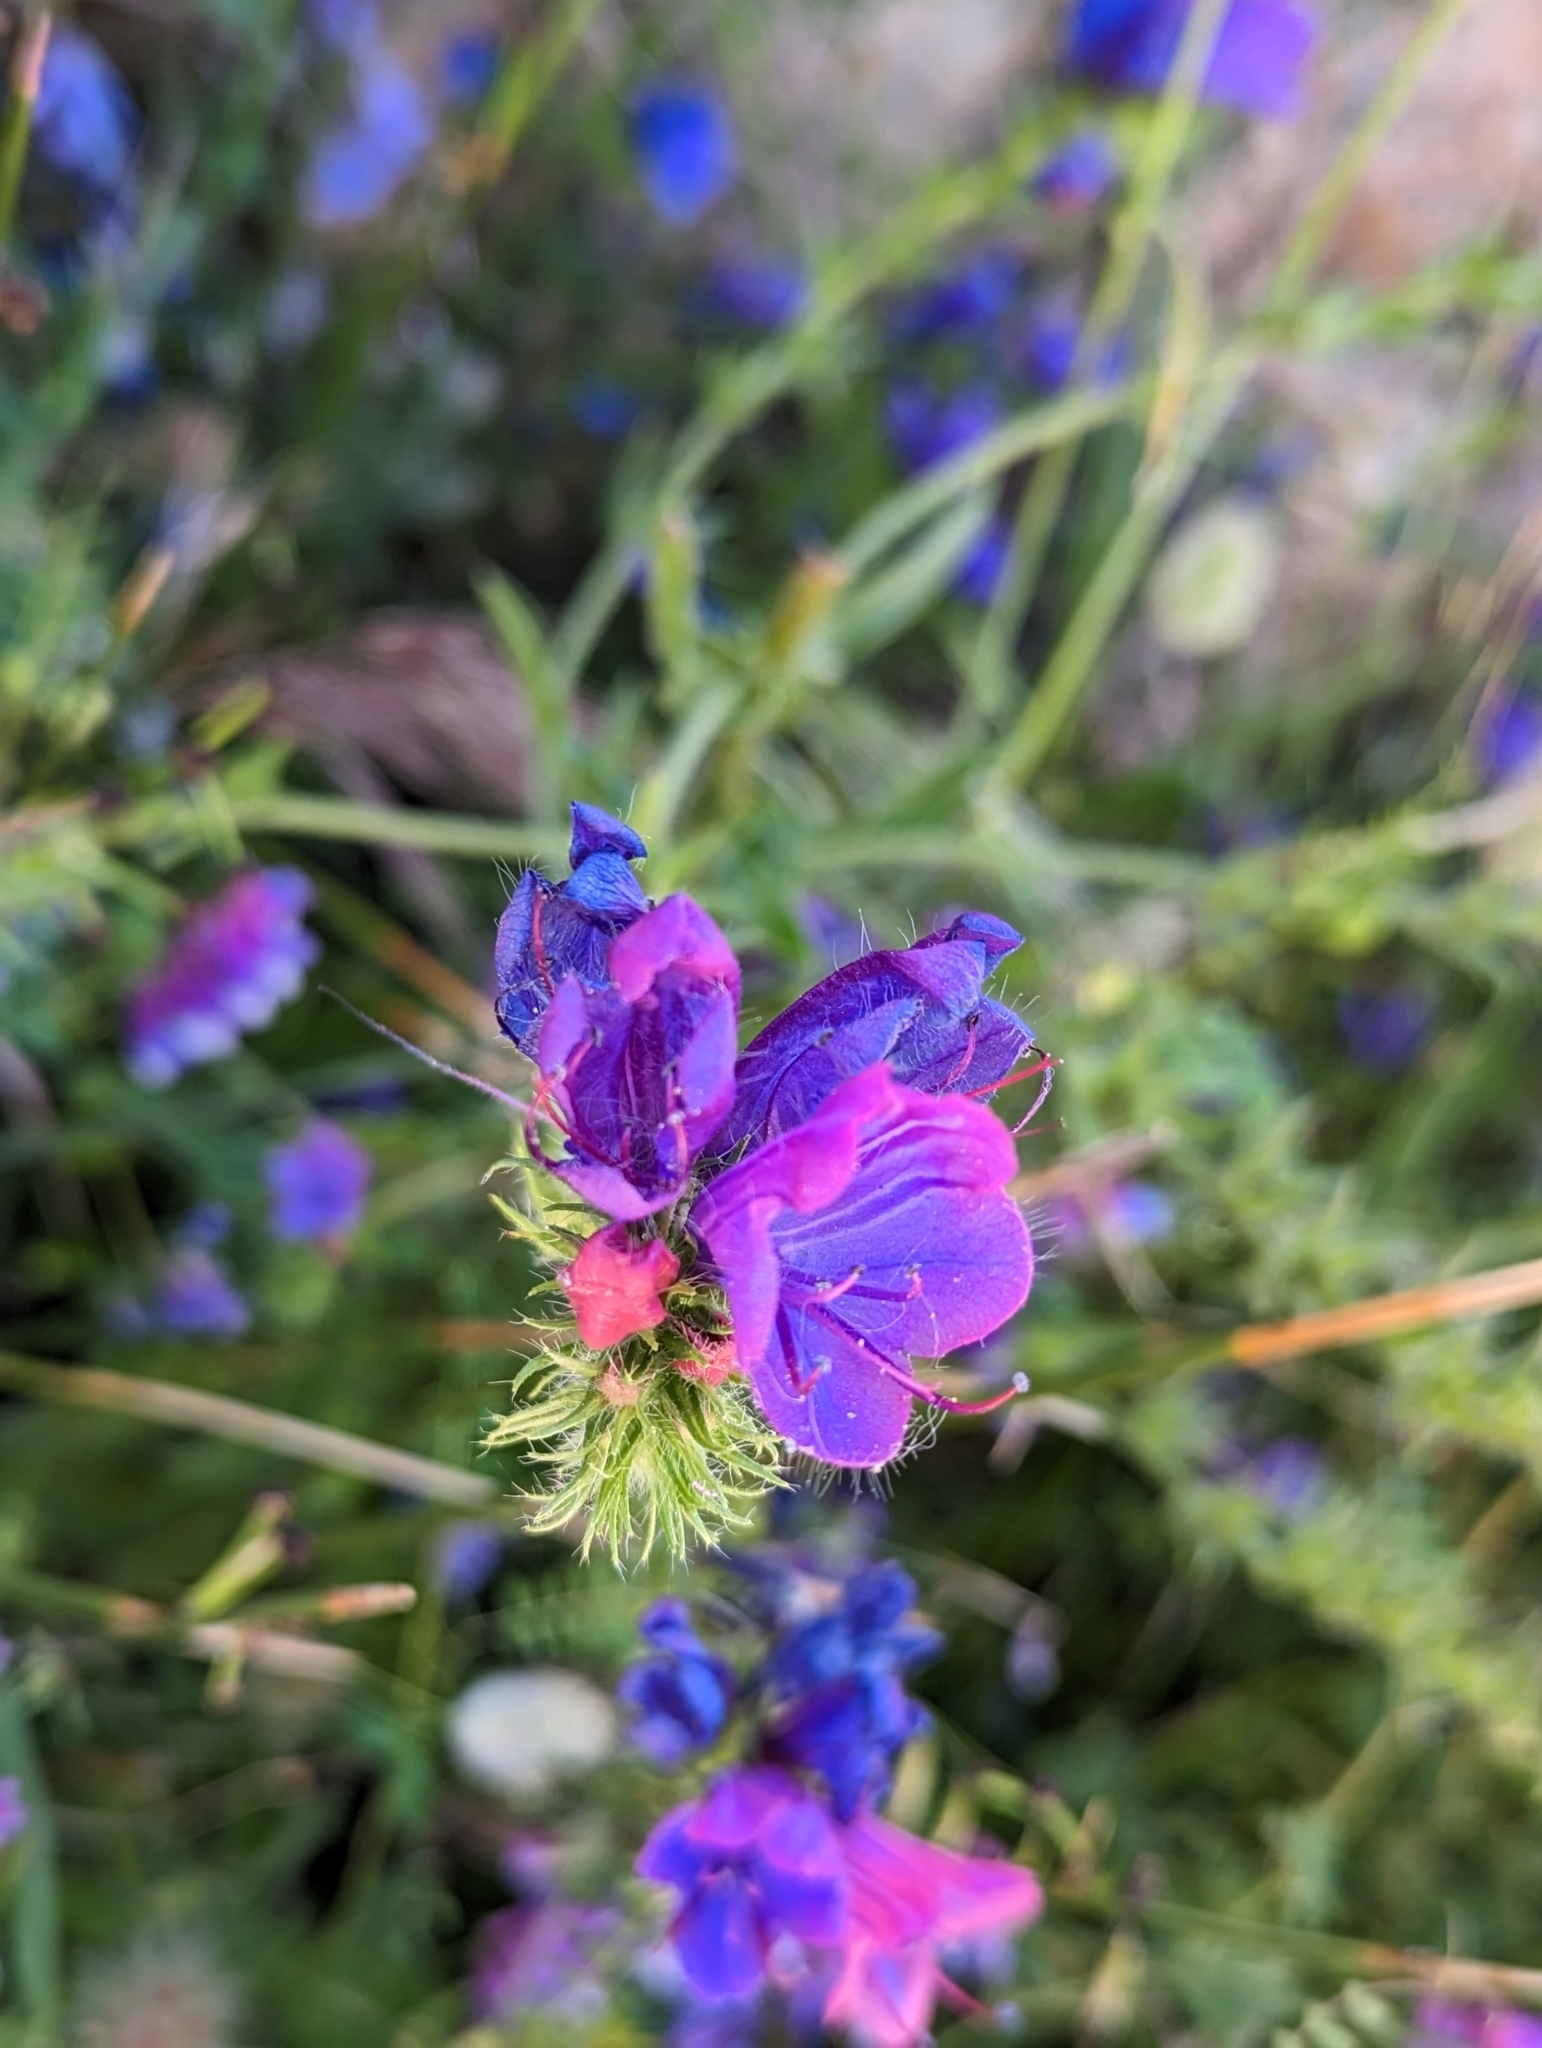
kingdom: Plantae
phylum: Tracheophyta
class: Magnoliopsida
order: Boraginales
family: Boraginaceae
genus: Echium
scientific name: Echium plantagineum
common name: Purple viper's-bugloss
